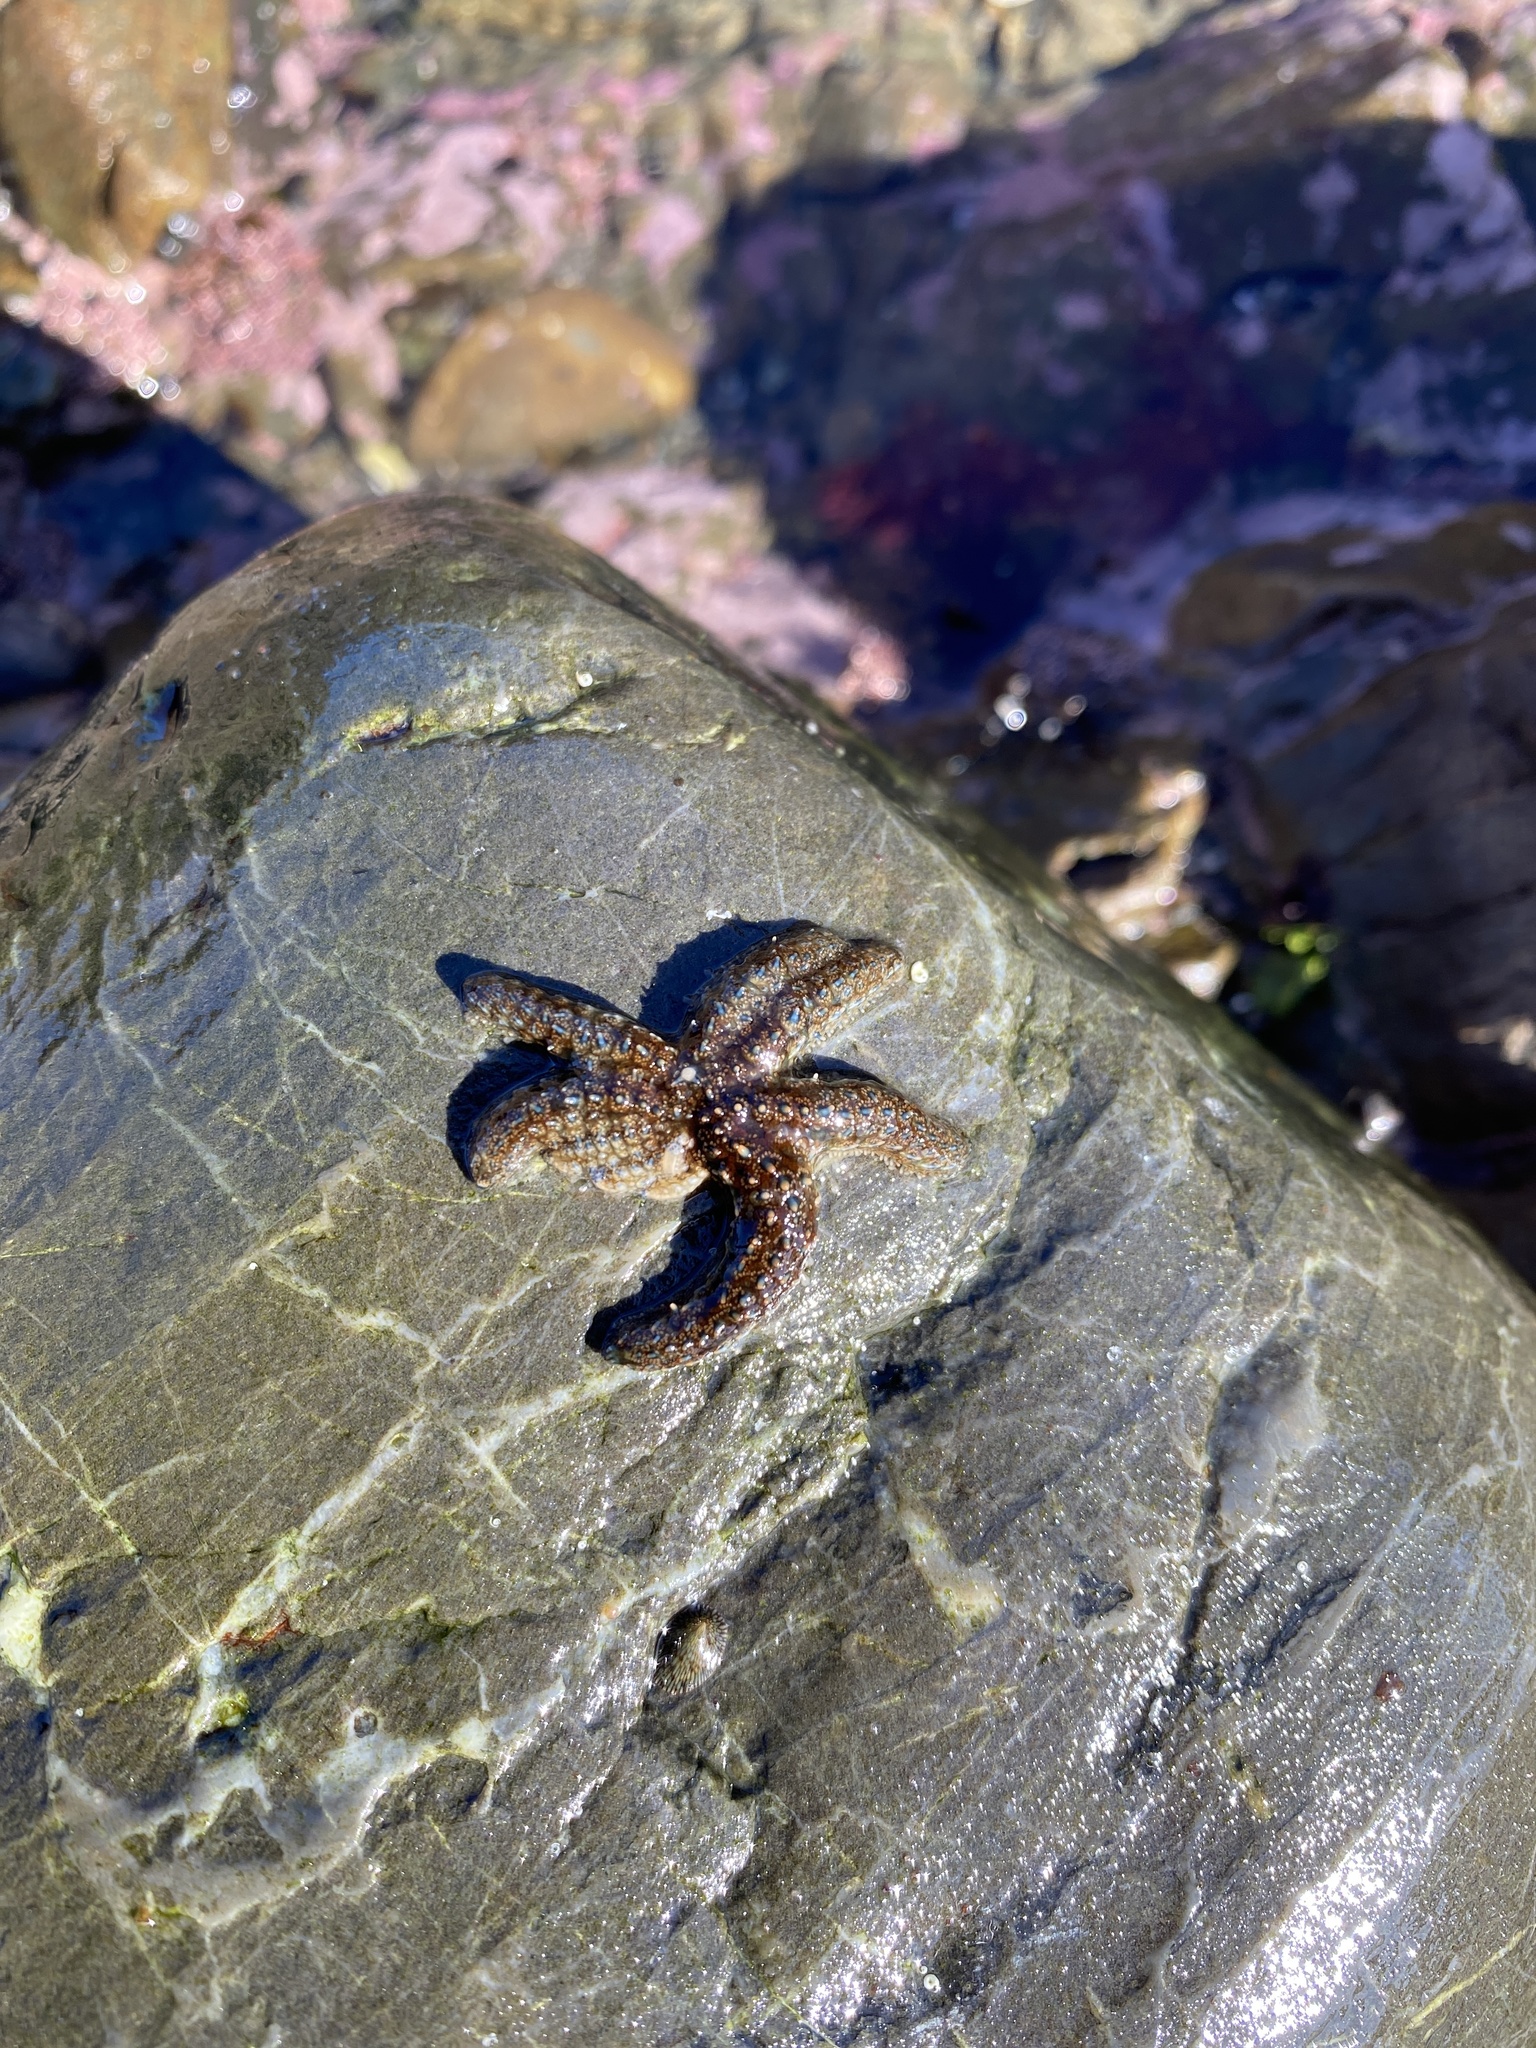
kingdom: Animalia
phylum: Echinodermata
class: Asteroidea
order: Forcipulatida
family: Asteriidae
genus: Coscinasterias
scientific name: Coscinasterias muricata
